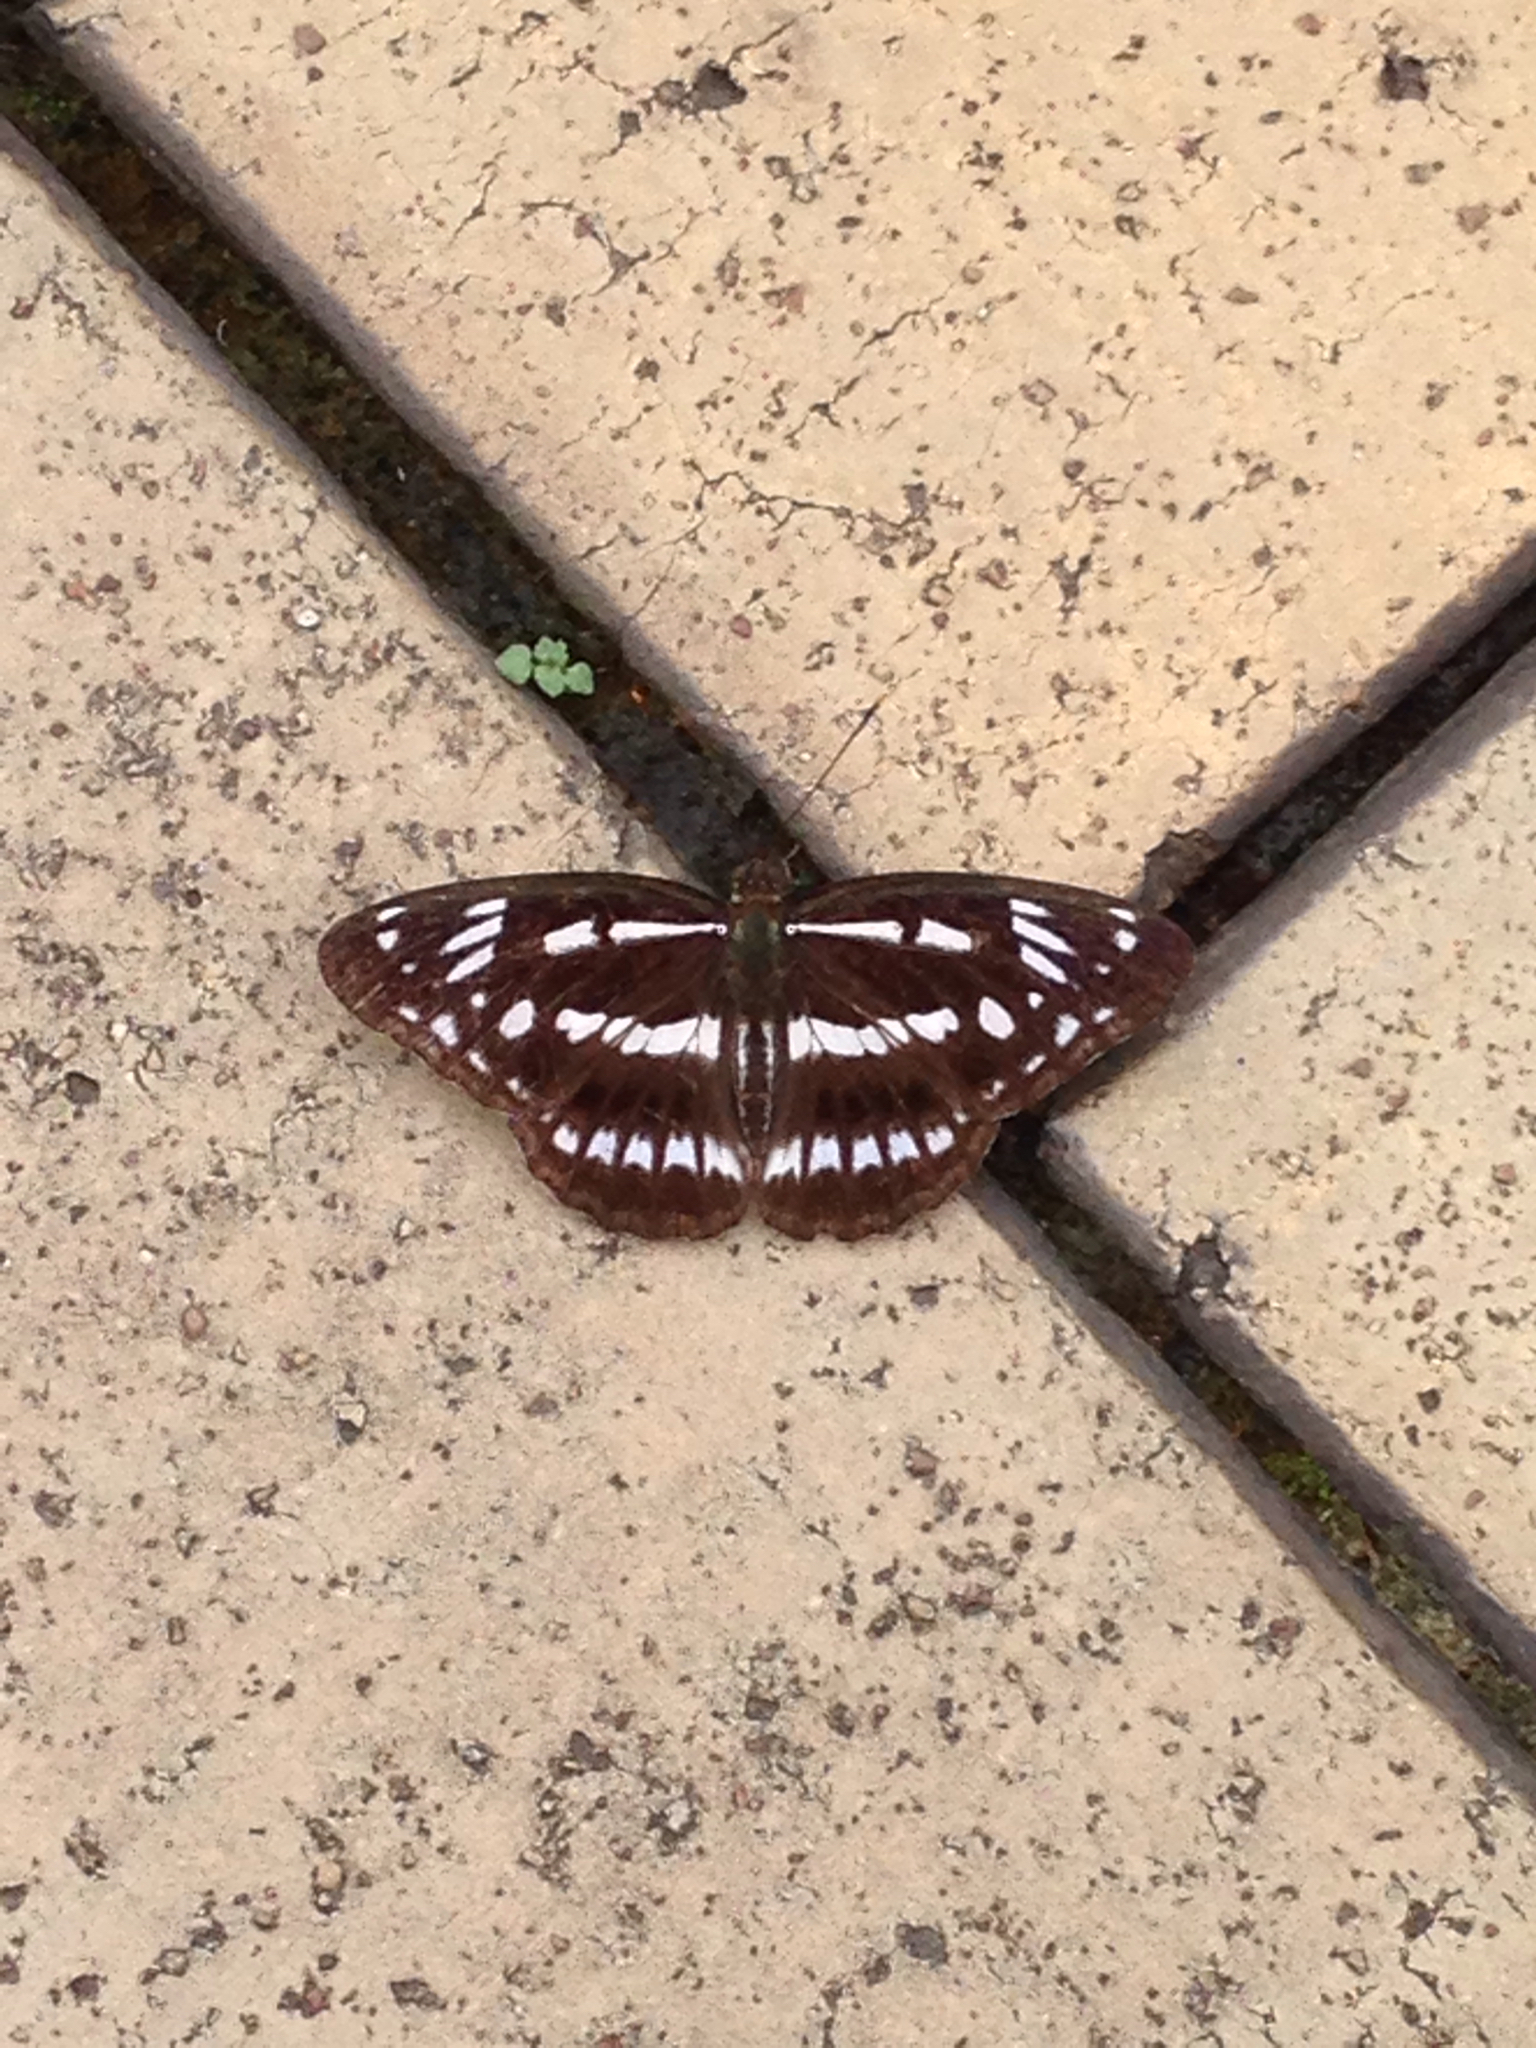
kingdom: Animalia
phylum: Arthropoda
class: Insecta
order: Lepidoptera
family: Nymphalidae
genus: Limenitis
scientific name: Limenitis sulpitia
